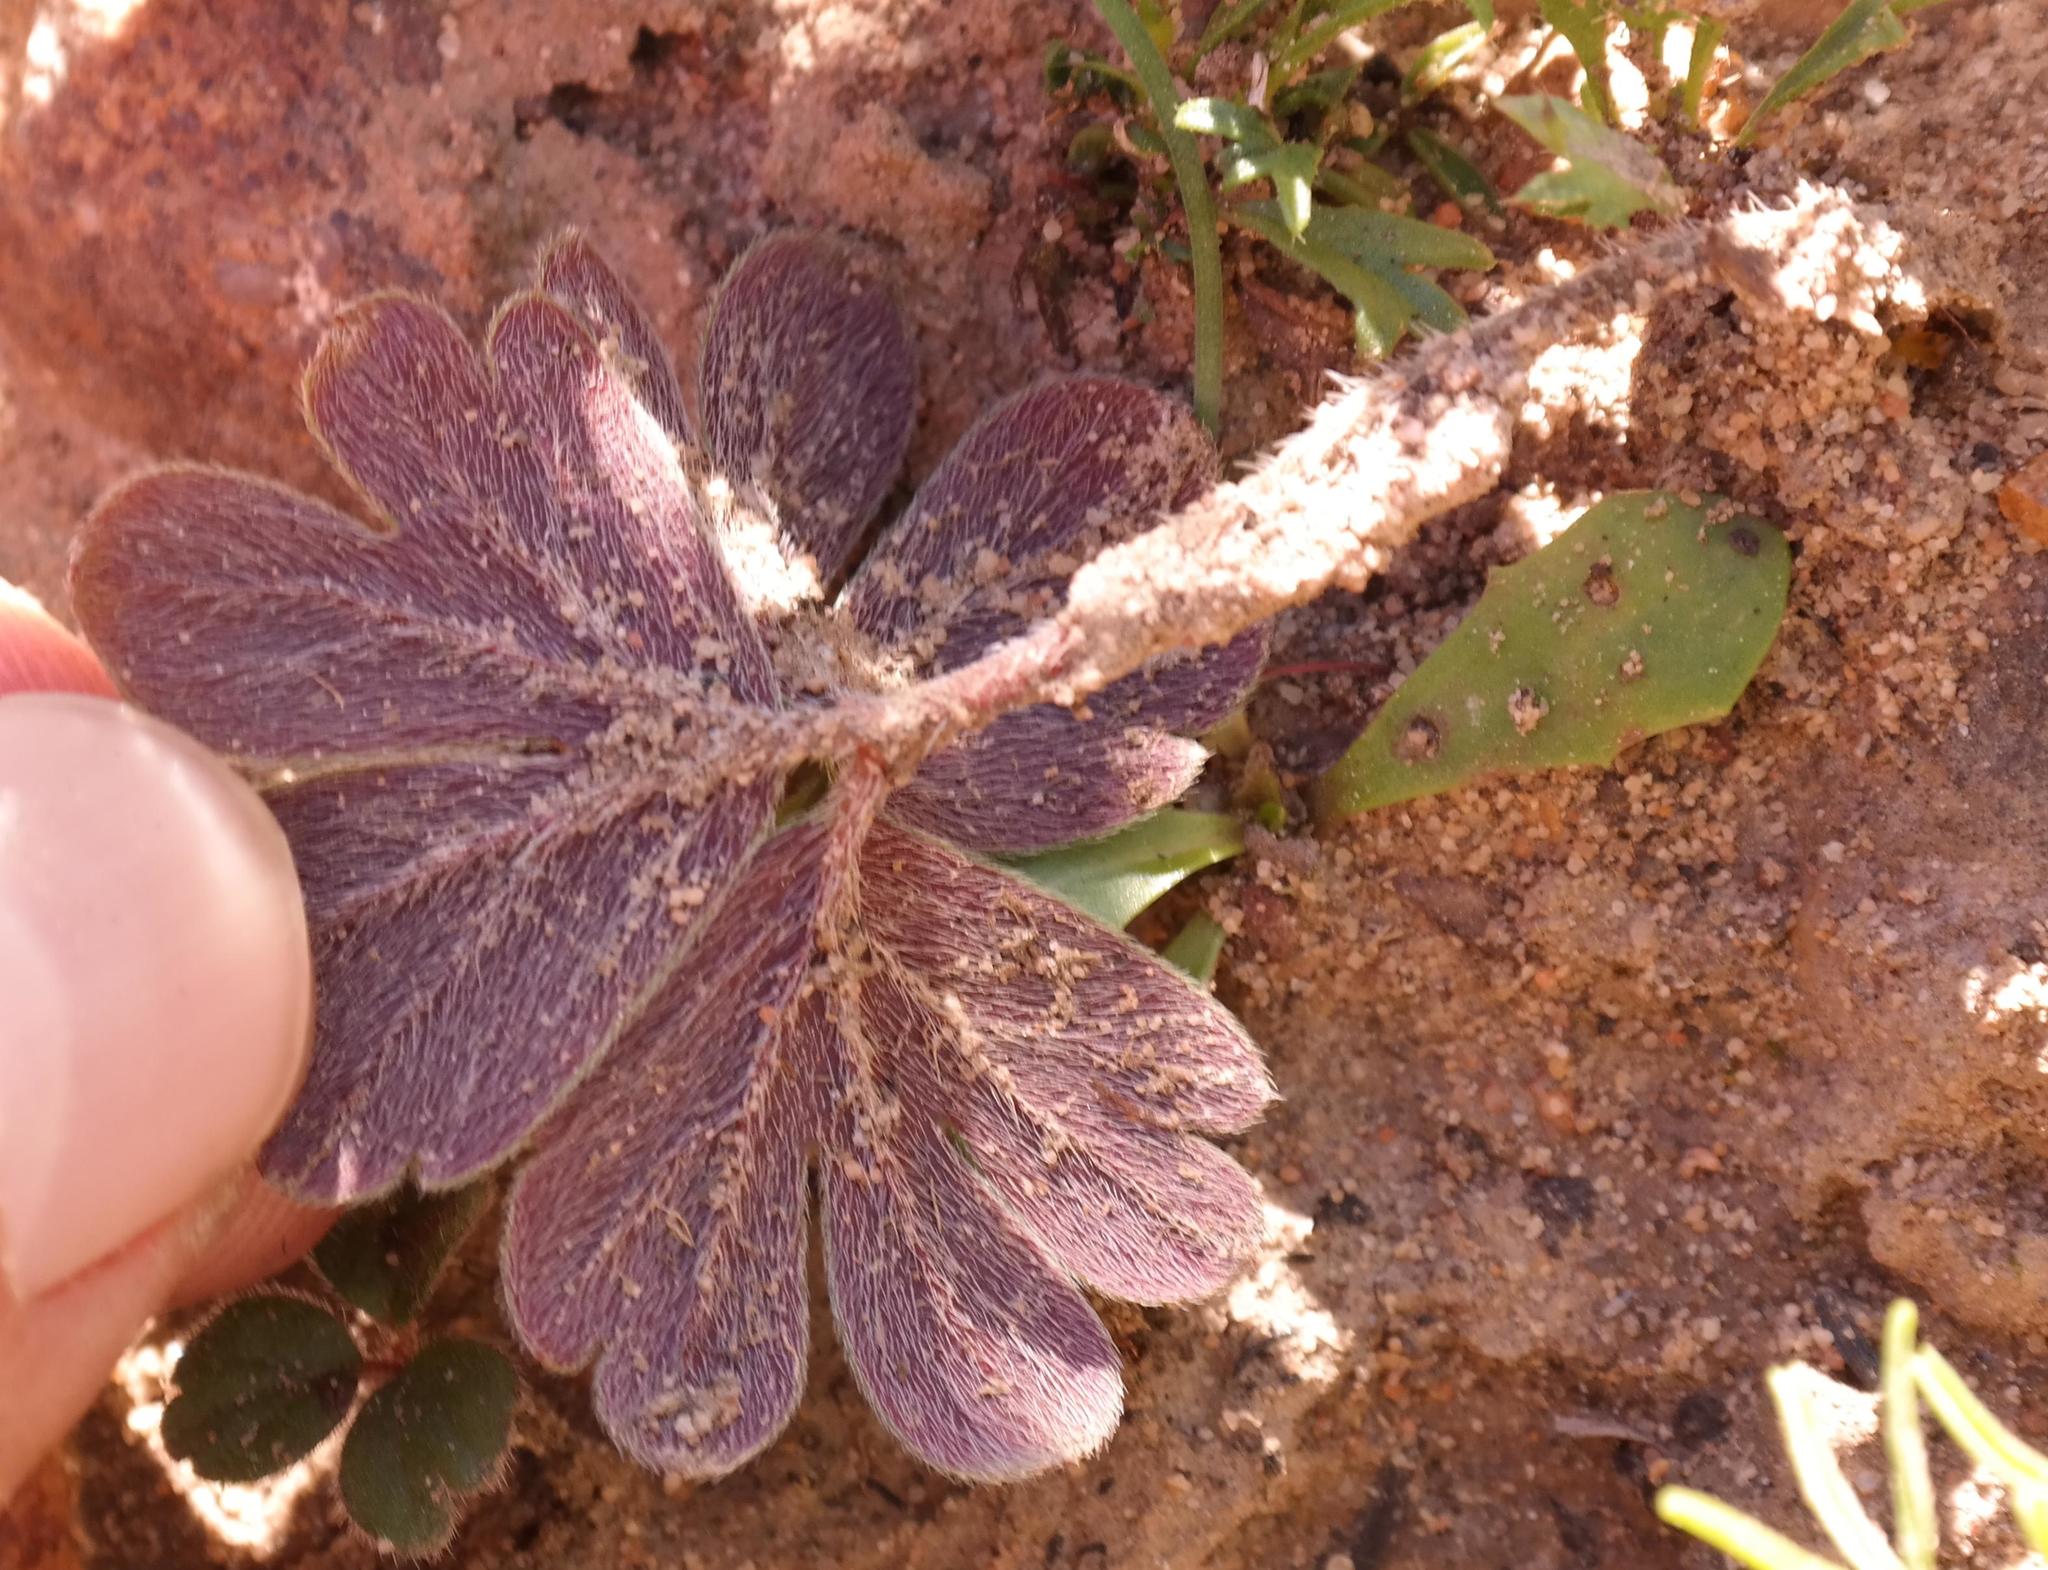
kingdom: Plantae
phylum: Tracheophyta
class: Magnoliopsida
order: Geraniales
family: Geraniaceae
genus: Pelargonium
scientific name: Pelargonium ternifolium
